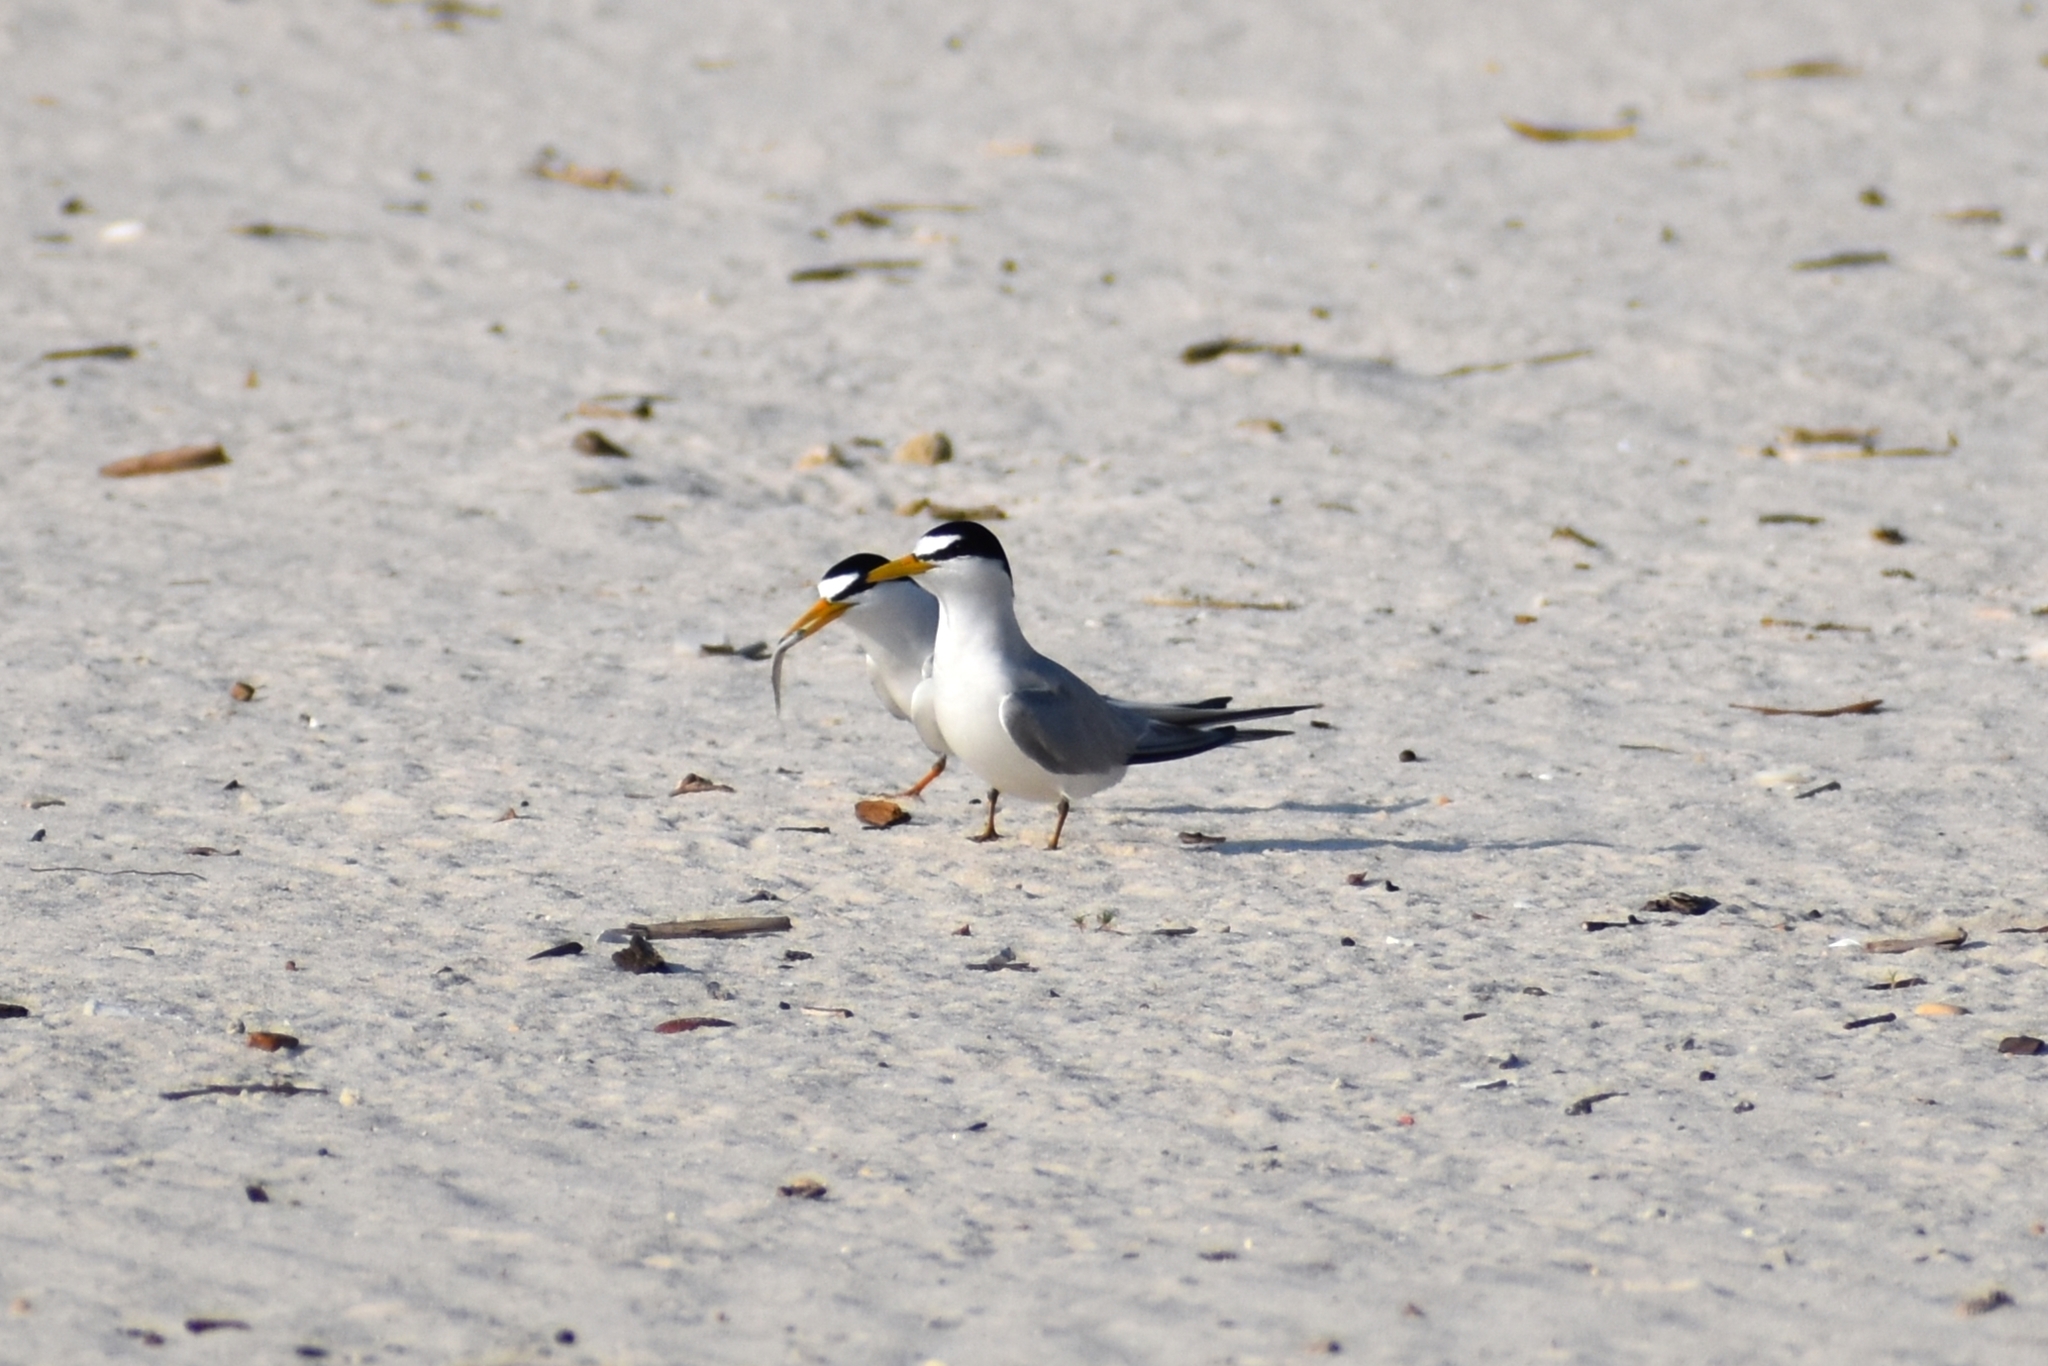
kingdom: Animalia
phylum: Chordata
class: Aves
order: Charadriiformes
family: Laridae
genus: Sternula
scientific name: Sternula antillarum
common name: Least tern
